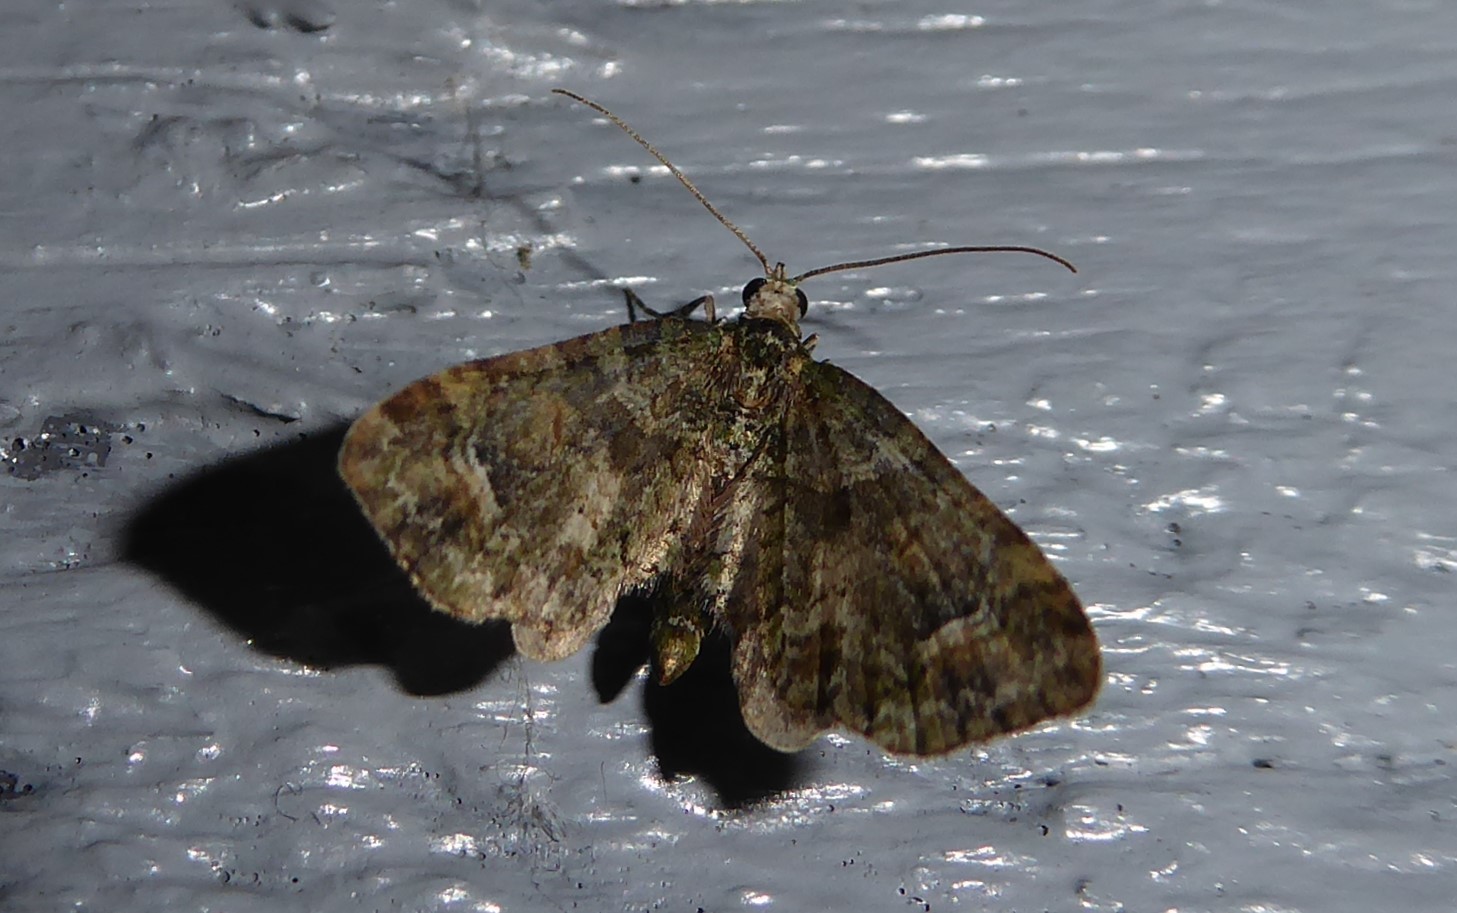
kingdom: Animalia
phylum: Arthropoda
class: Insecta
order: Lepidoptera
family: Geometridae
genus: Idaea
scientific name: Idaea mutanda
